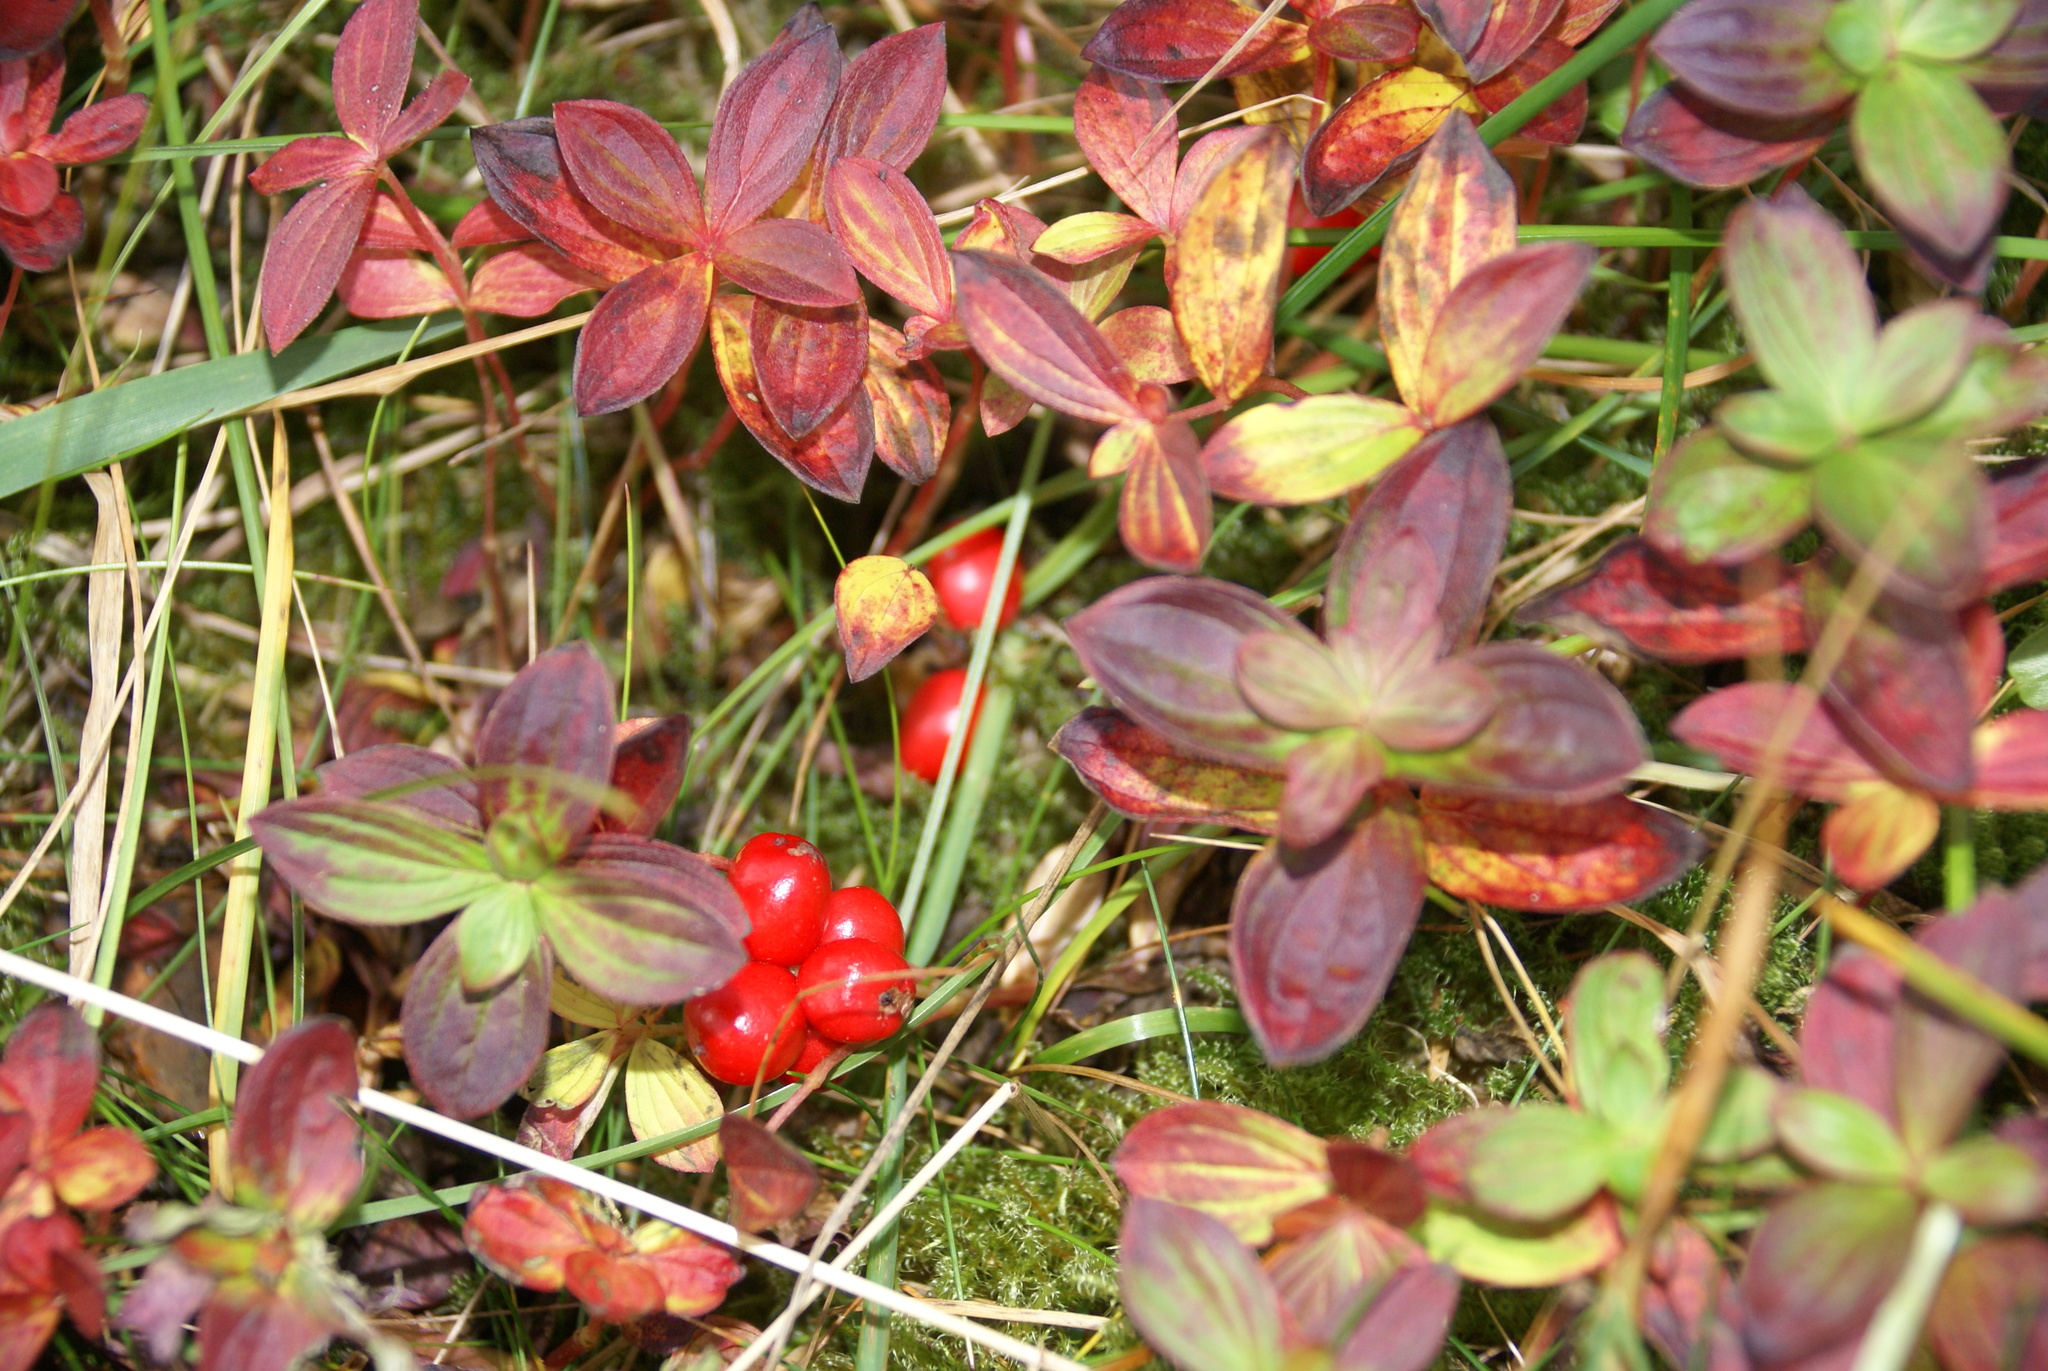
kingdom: Plantae
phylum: Tracheophyta
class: Magnoliopsida
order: Cornales
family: Cornaceae
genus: Cornus
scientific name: Cornus suecica
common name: Dwarf cornel
